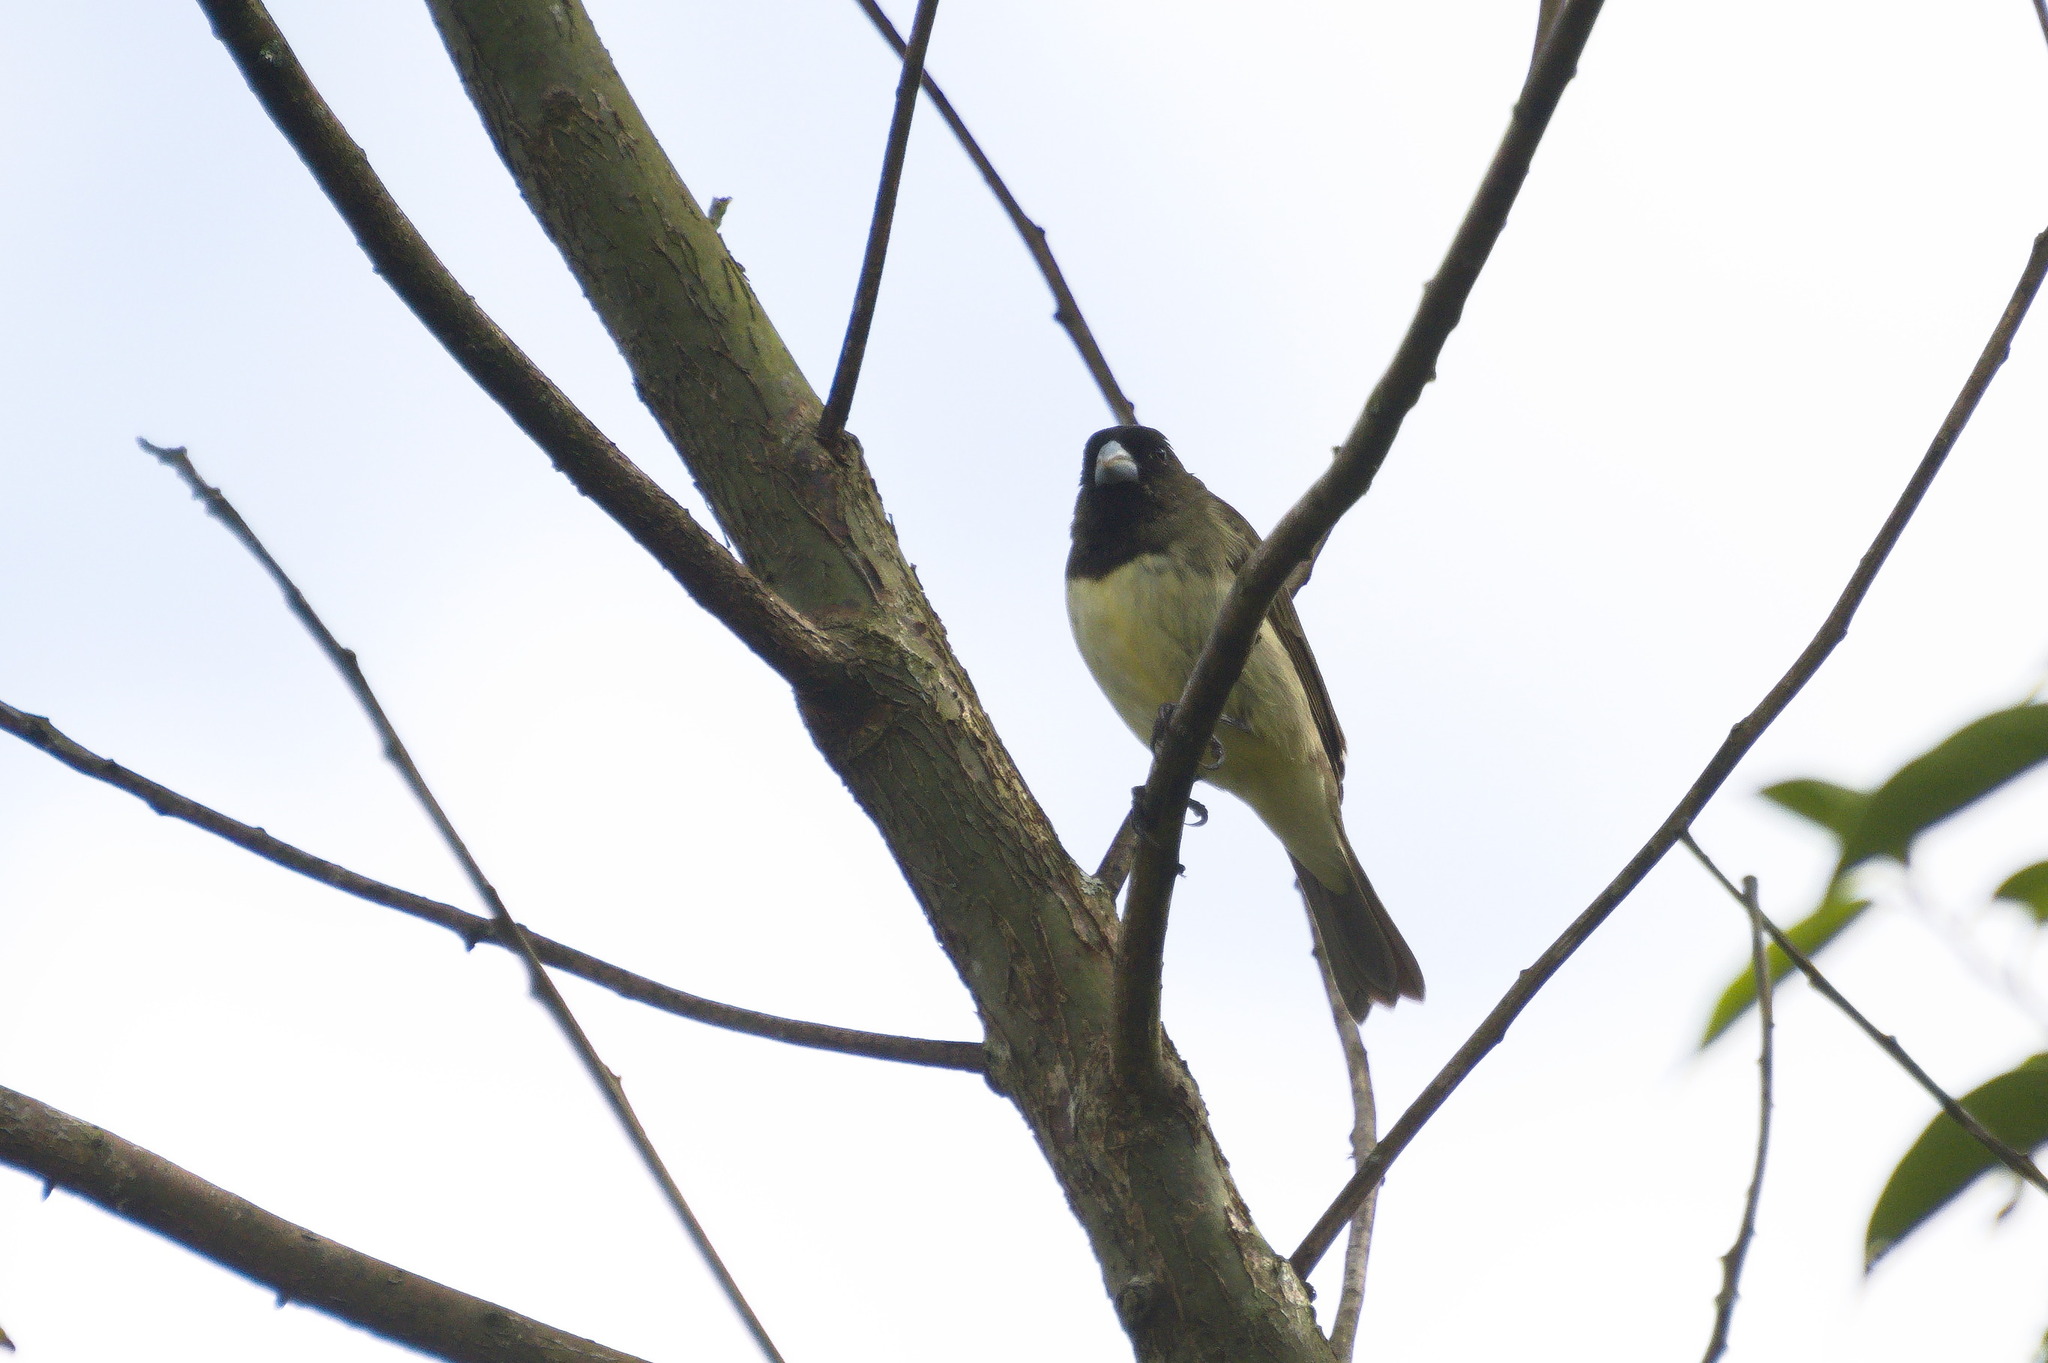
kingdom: Animalia
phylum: Chordata
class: Aves
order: Passeriformes
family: Thraupidae
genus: Sporophila
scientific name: Sporophila nigricollis
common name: Yellow-bellied seedeater
